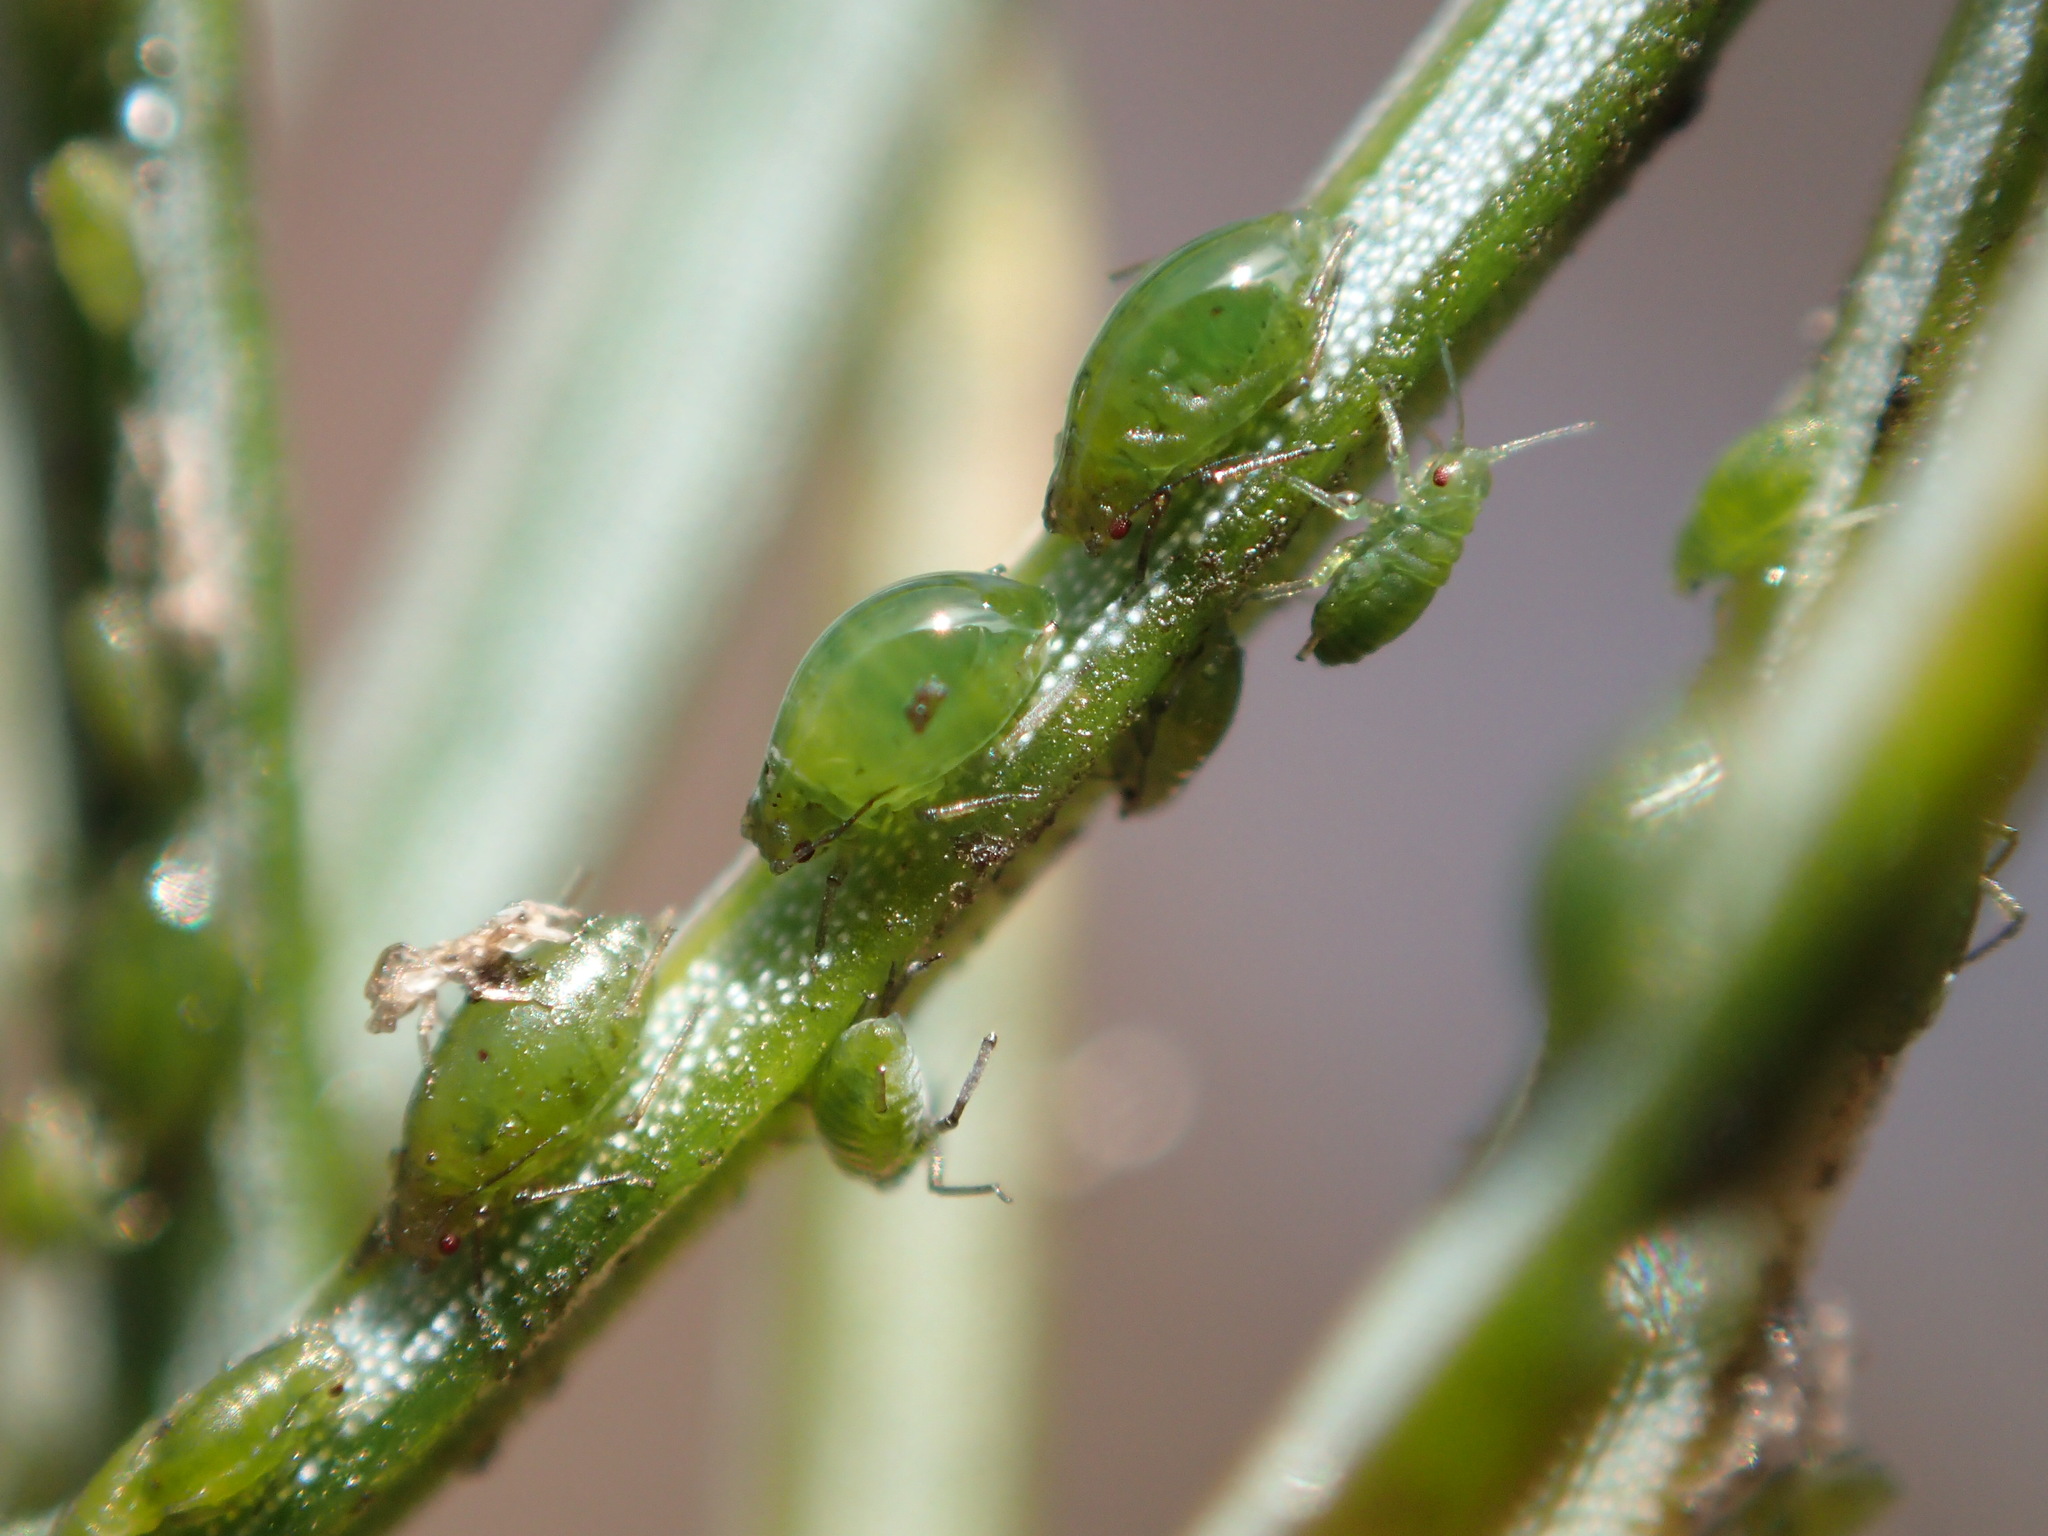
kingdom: Animalia
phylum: Arthropoda
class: Insecta
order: Hemiptera
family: Aphididae
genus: Elatobium
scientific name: Elatobium abietinum
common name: Spruce aphid
